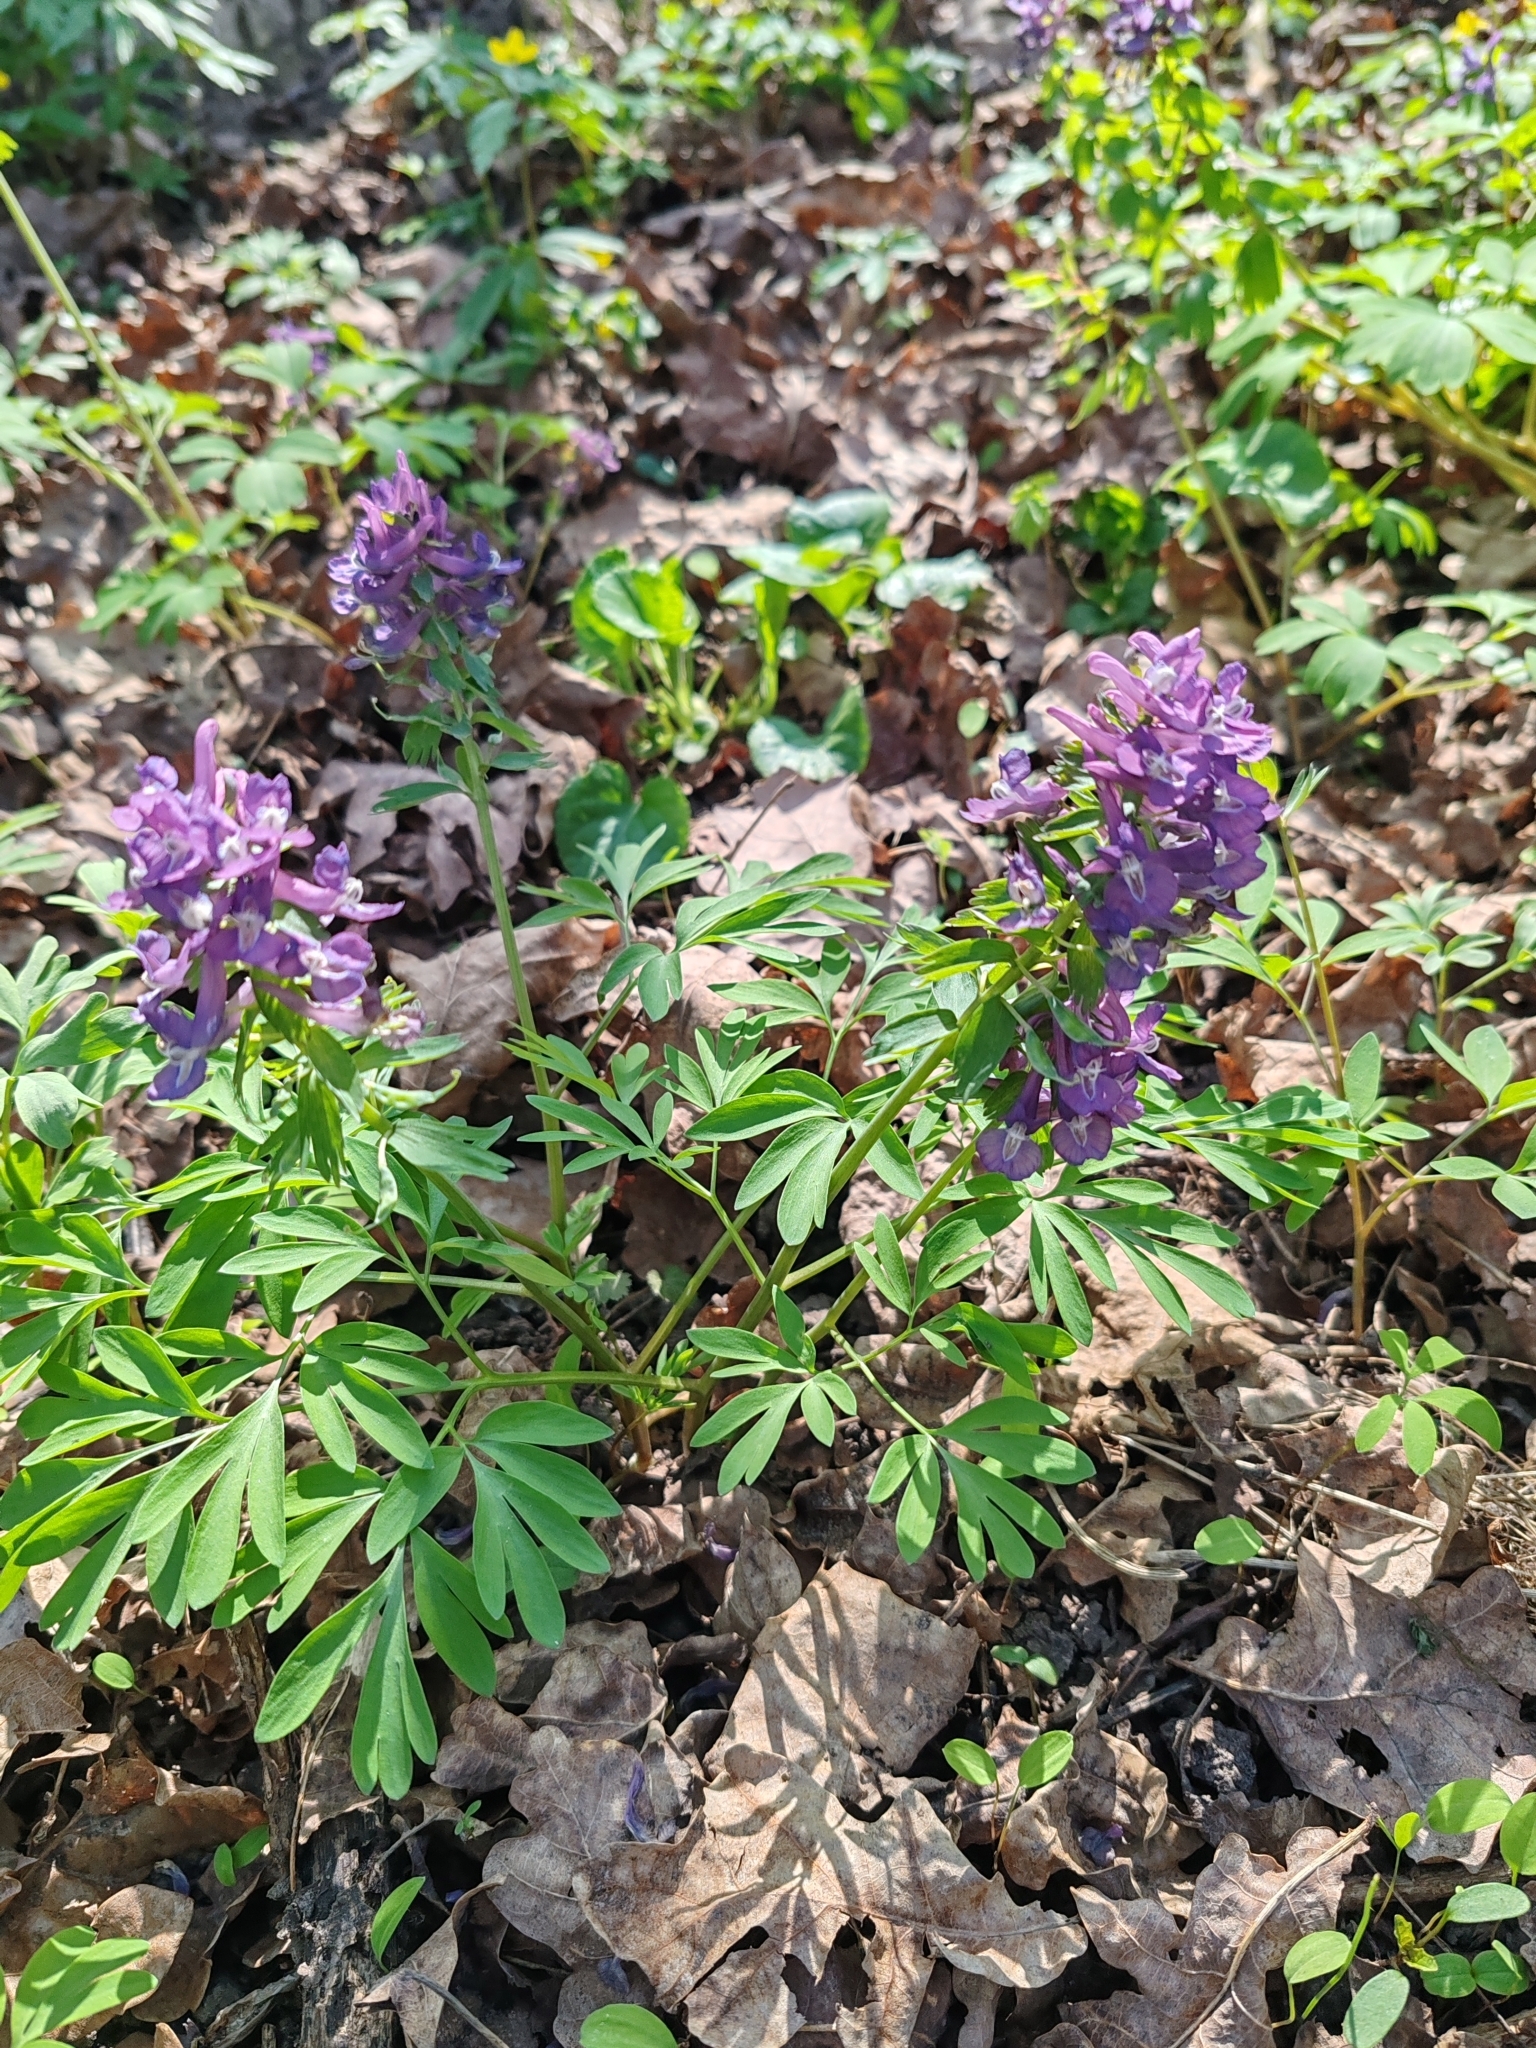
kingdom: Plantae
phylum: Tracheophyta
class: Magnoliopsida
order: Ranunculales
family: Papaveraceae
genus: Corydalis
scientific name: Corydalis solida
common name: Bird-in-a-bush
